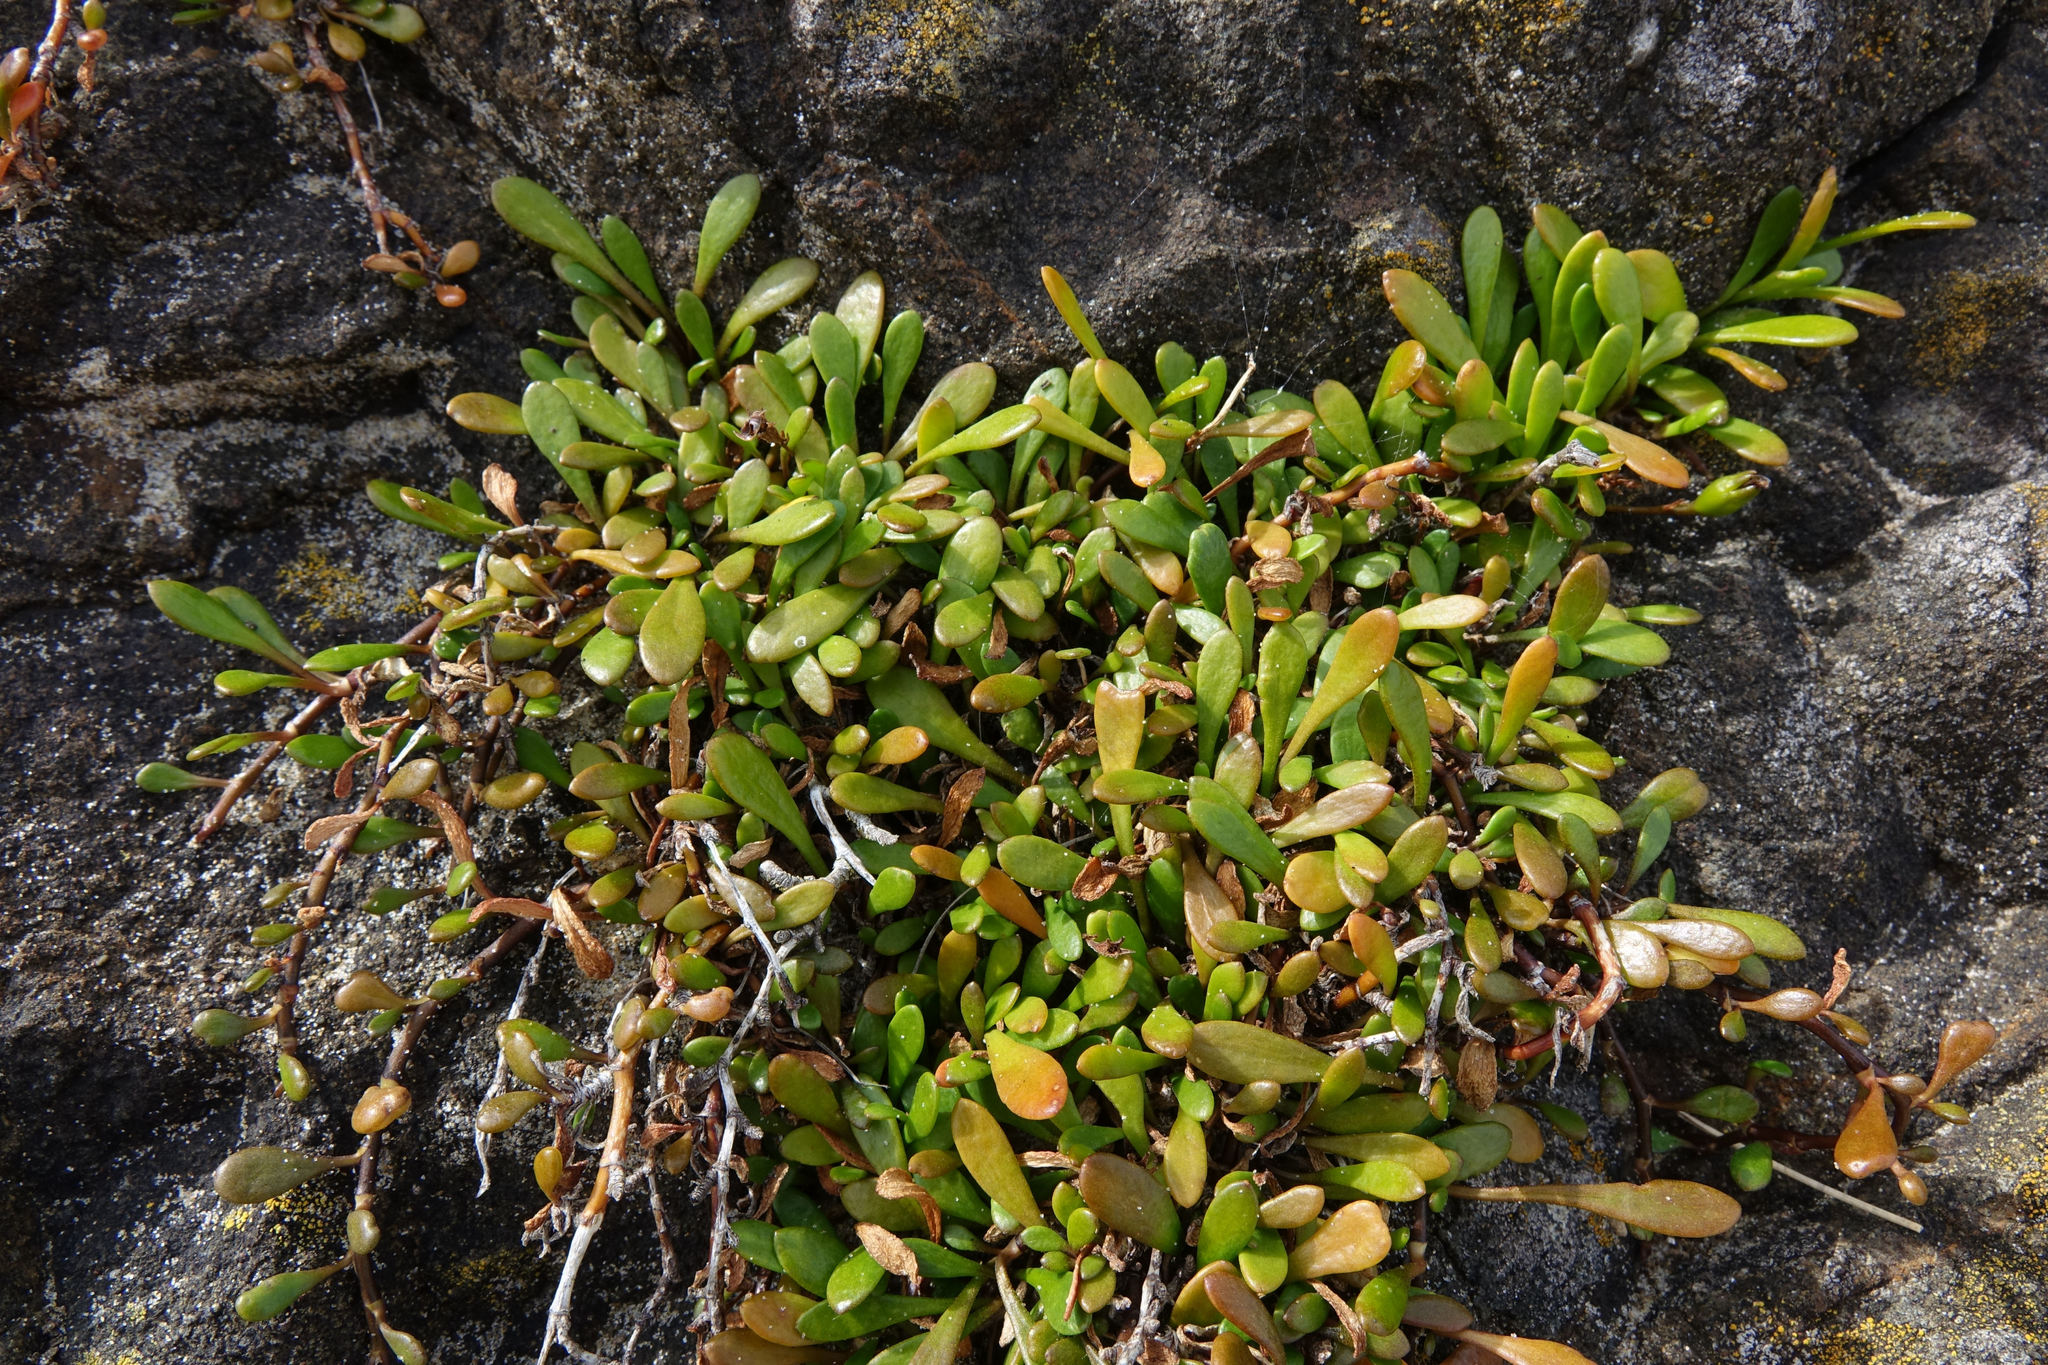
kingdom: Plantae
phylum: Tracheophyta
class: Magnoliopsida
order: Asterales
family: Goodeniaceae
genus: Goodenia
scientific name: Goodenia radicans
